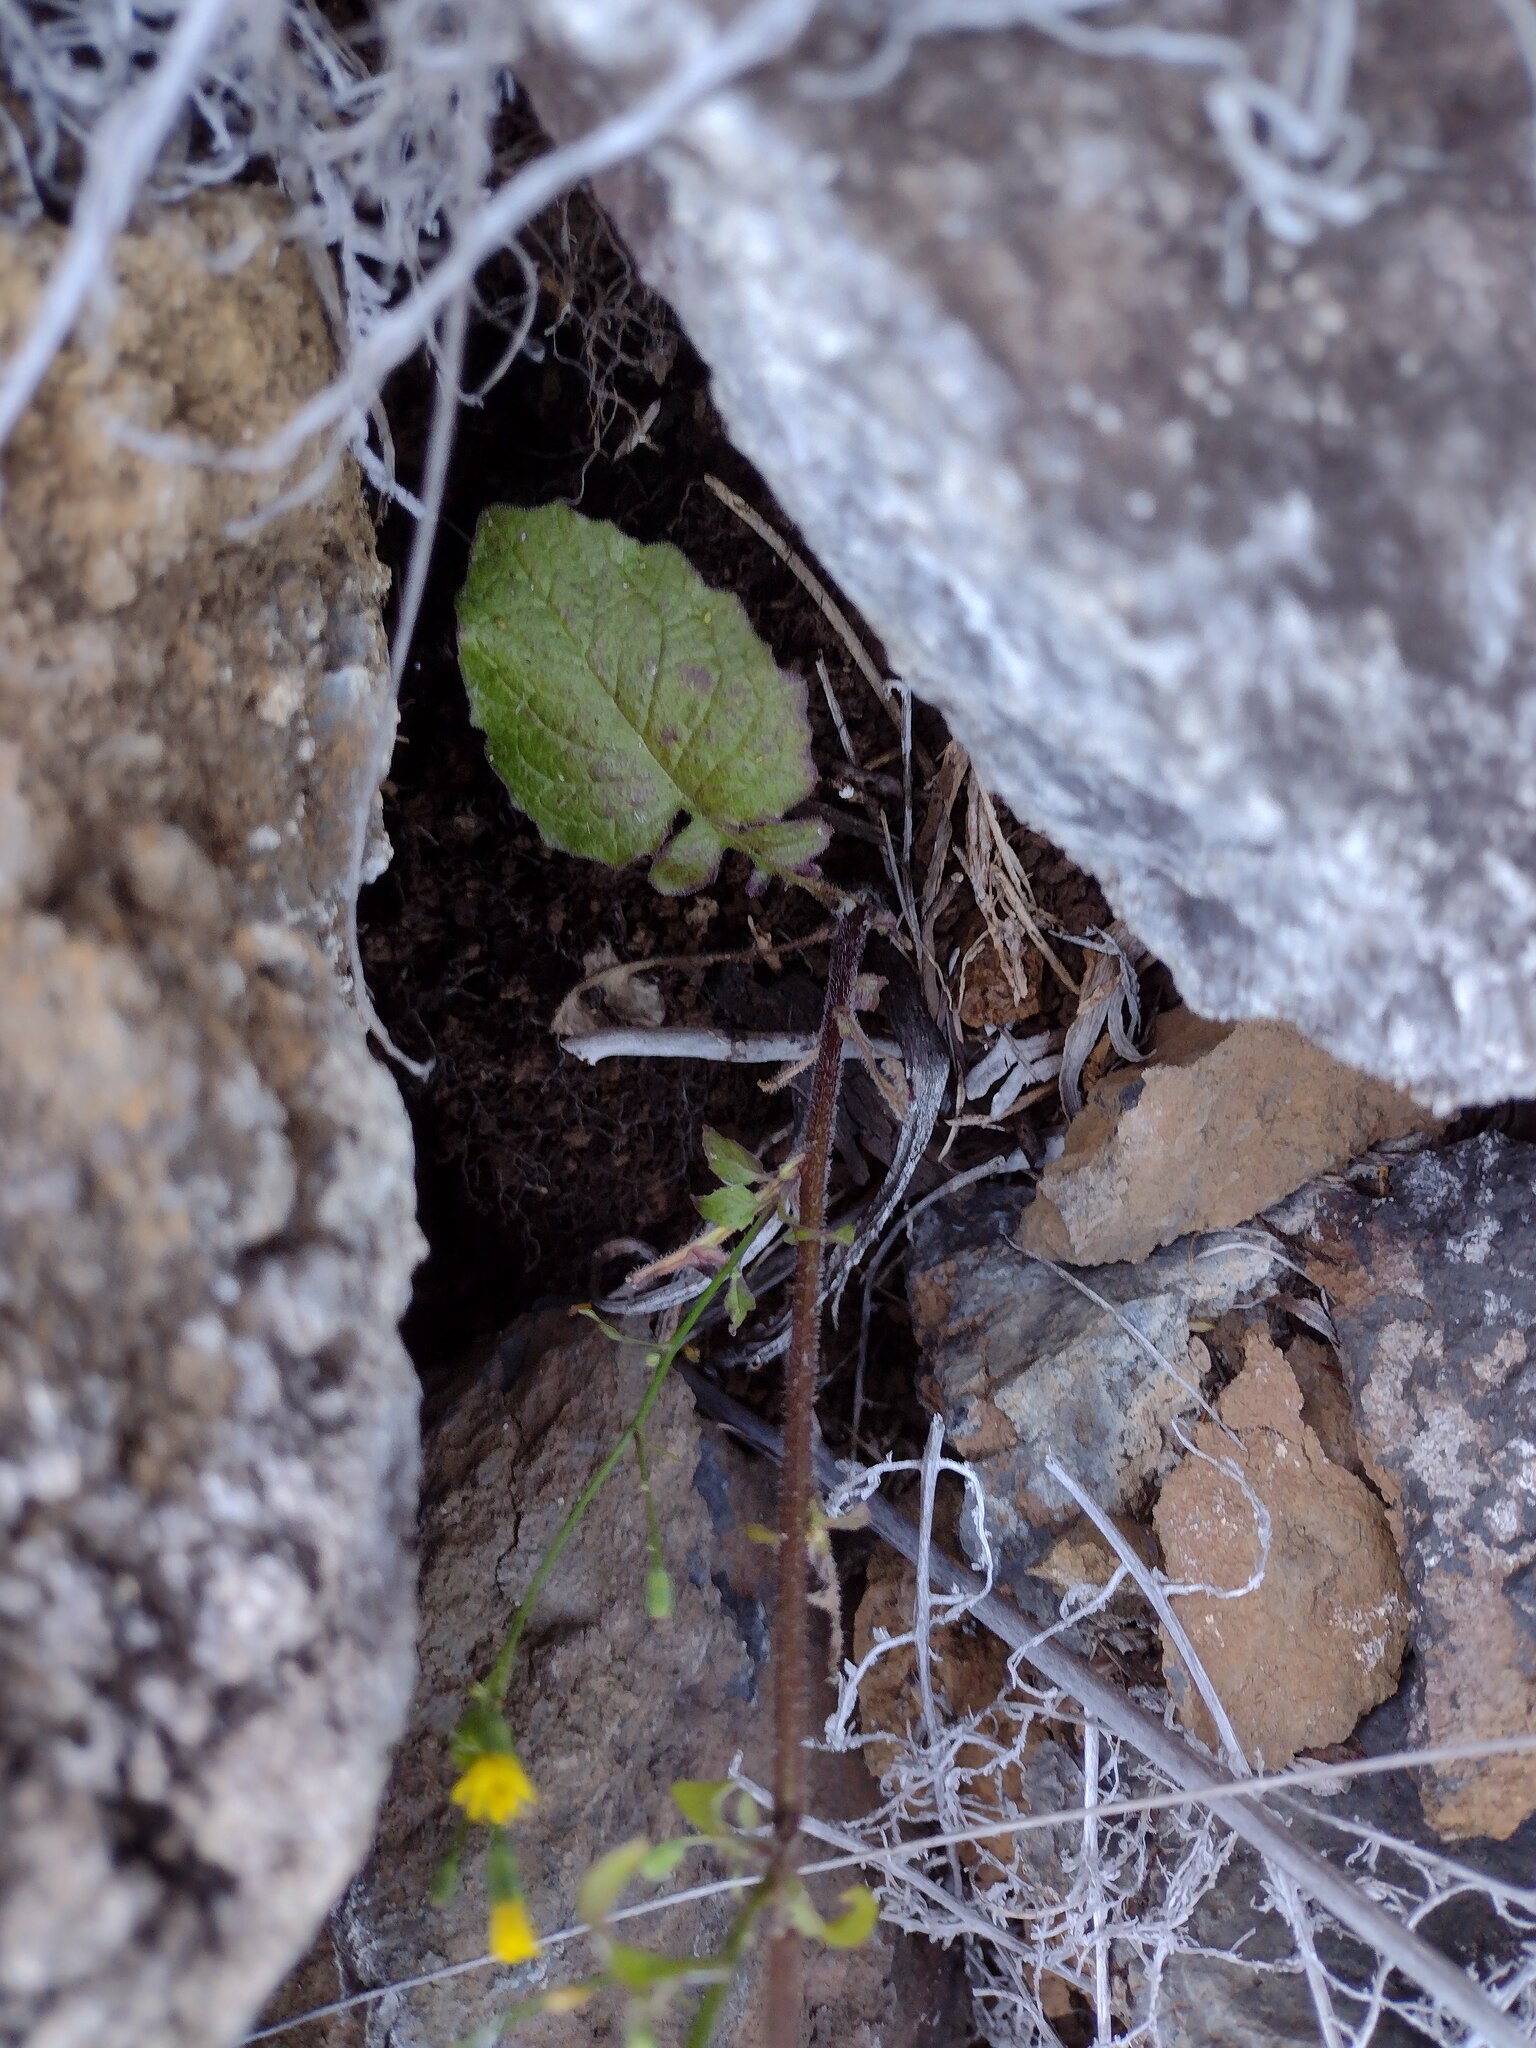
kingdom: Plantae
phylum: Tracheophyta
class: Magnoliopsida
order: Asterales
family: Asteraceae
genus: Lapsana
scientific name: Lapsana communis
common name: Nipplewort
